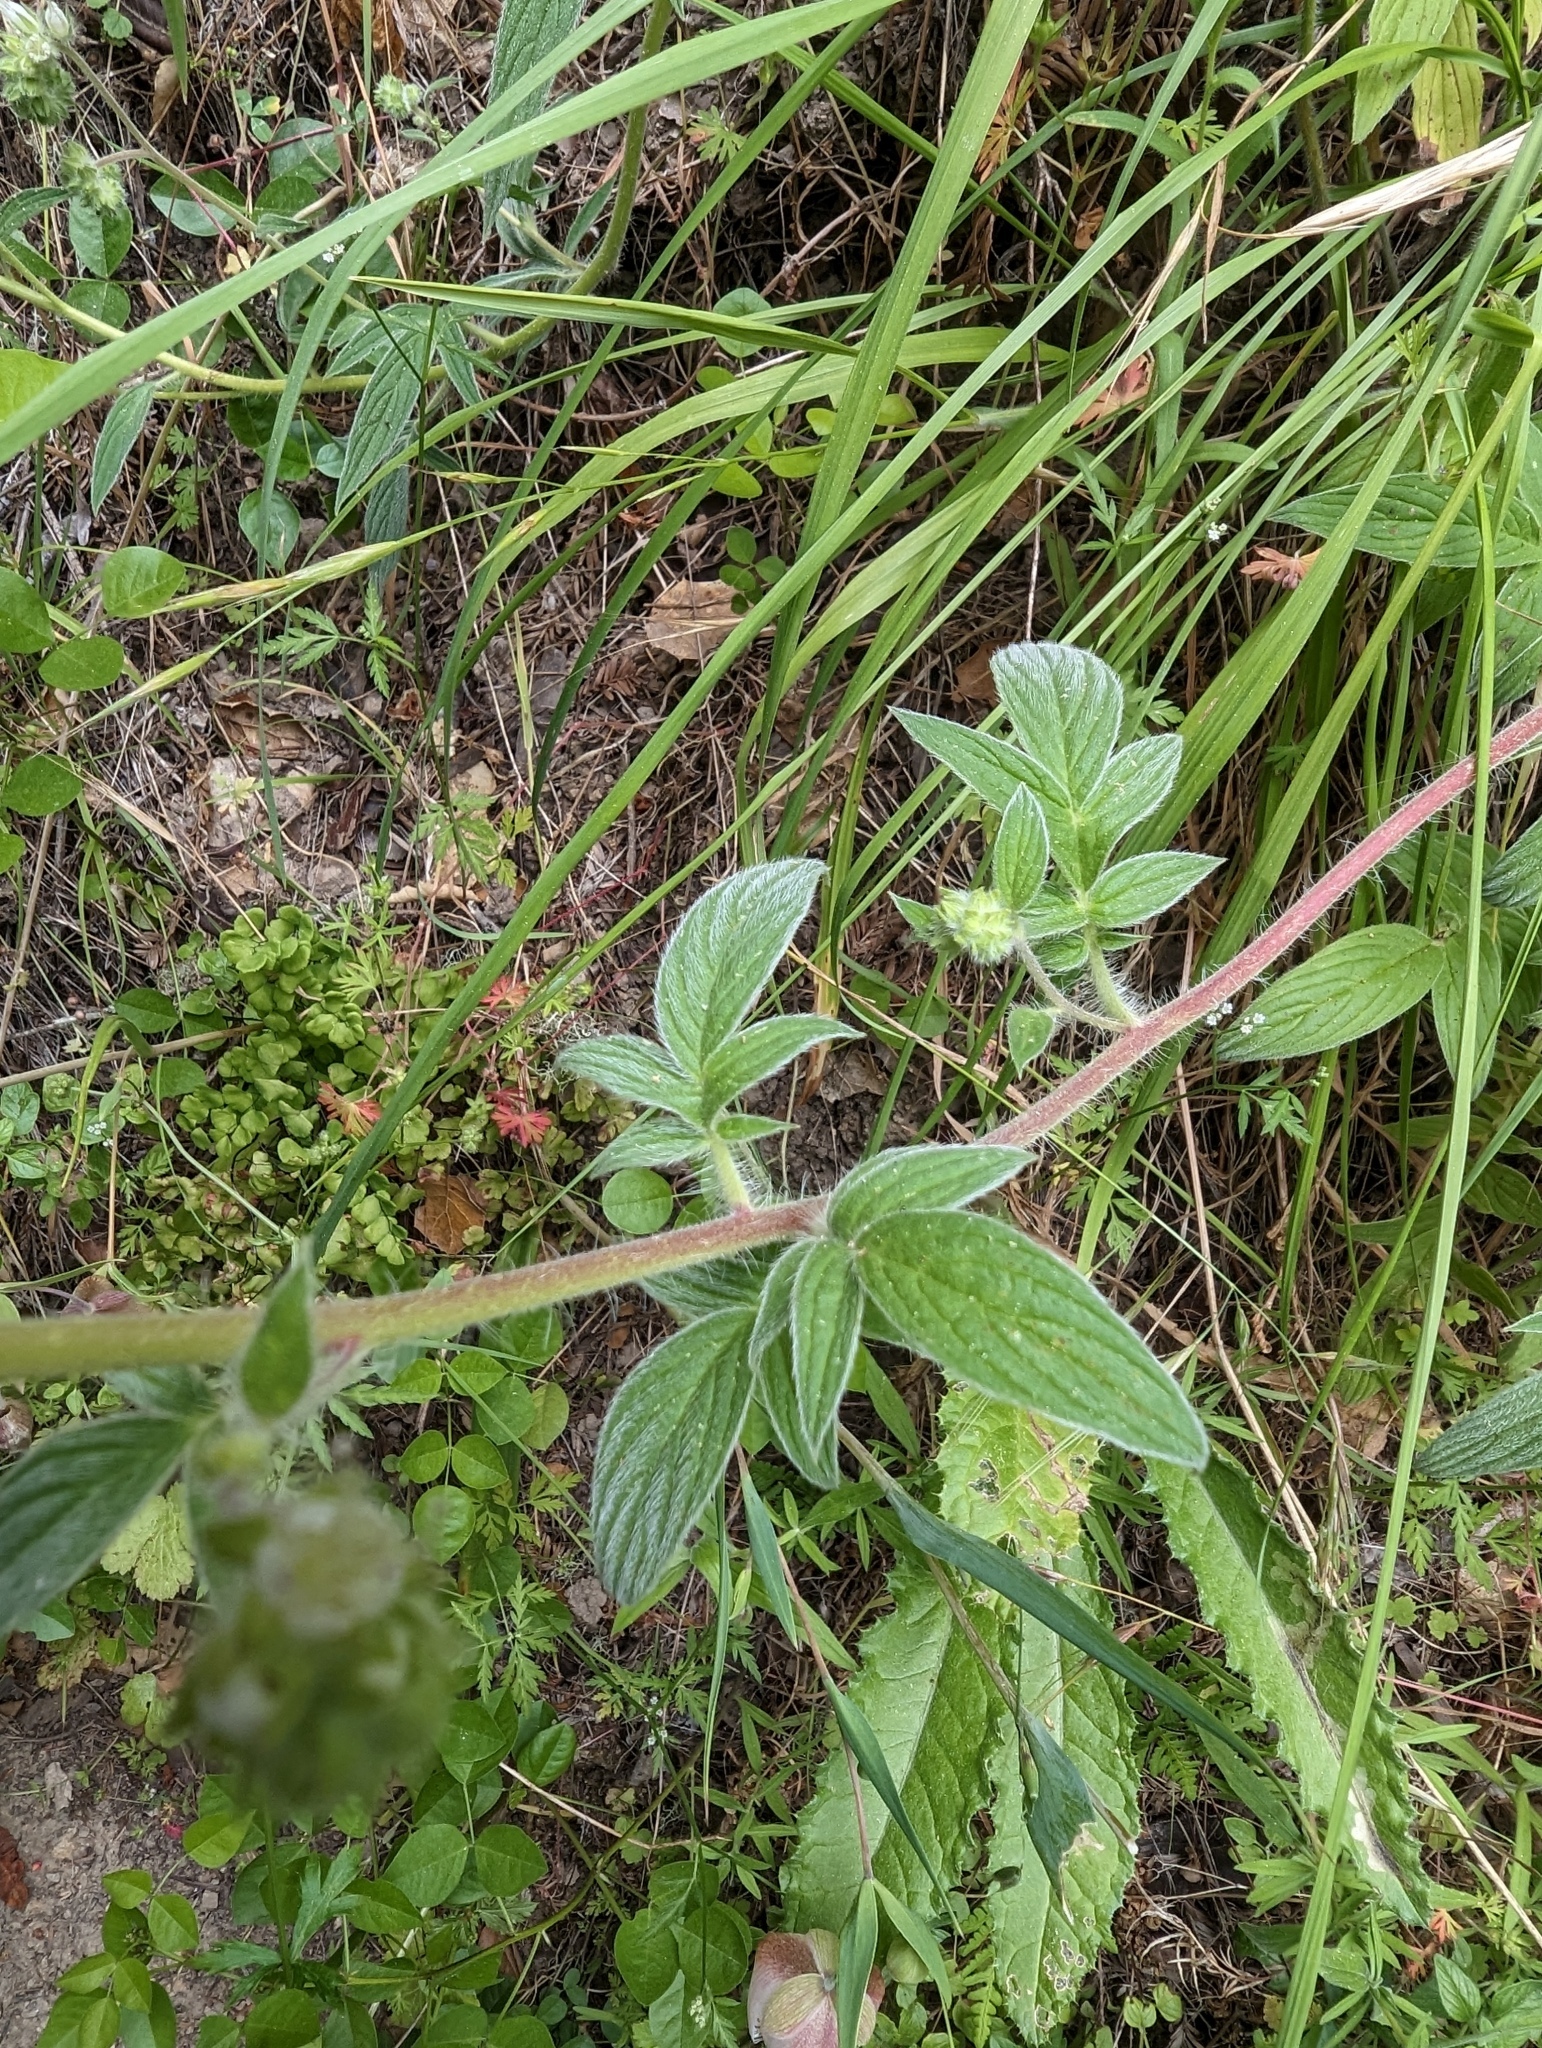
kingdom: Plantae
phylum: Tracheophyta
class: Magnoliopsida
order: Boraginales
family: Hydrophyllaceae
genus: Phacelia
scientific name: Phacelia imbricata
